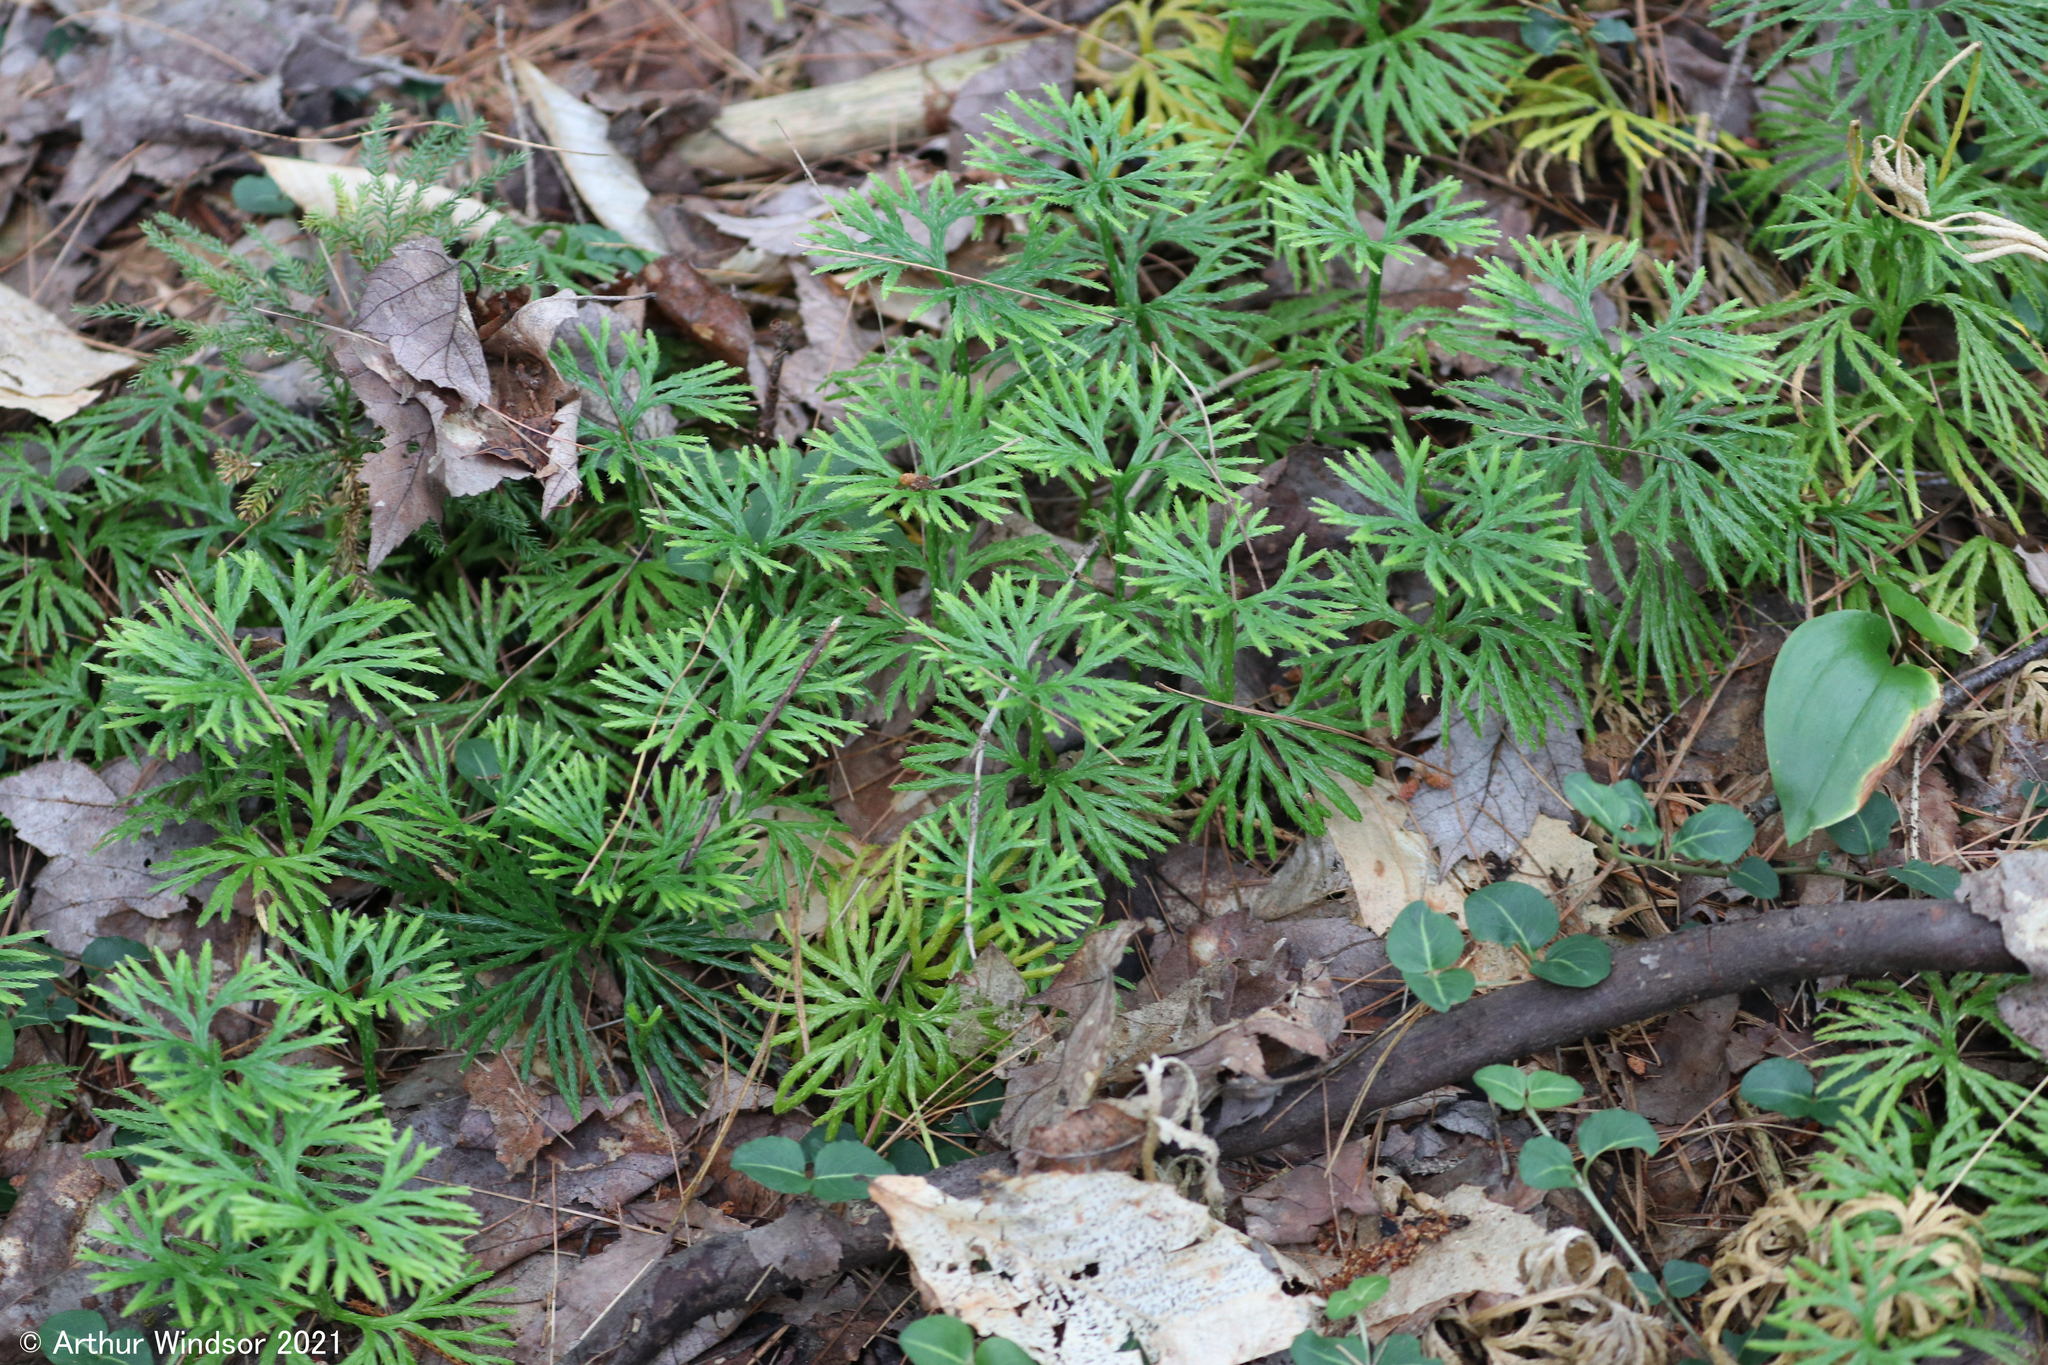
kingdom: Plantae
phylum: Tracheophyta
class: Lycopodiopsida
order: Lycopodiales
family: Lycopodiaceae
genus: Diphasiastrum
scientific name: Diphasiastrum digitatum
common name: Southern running-pine
